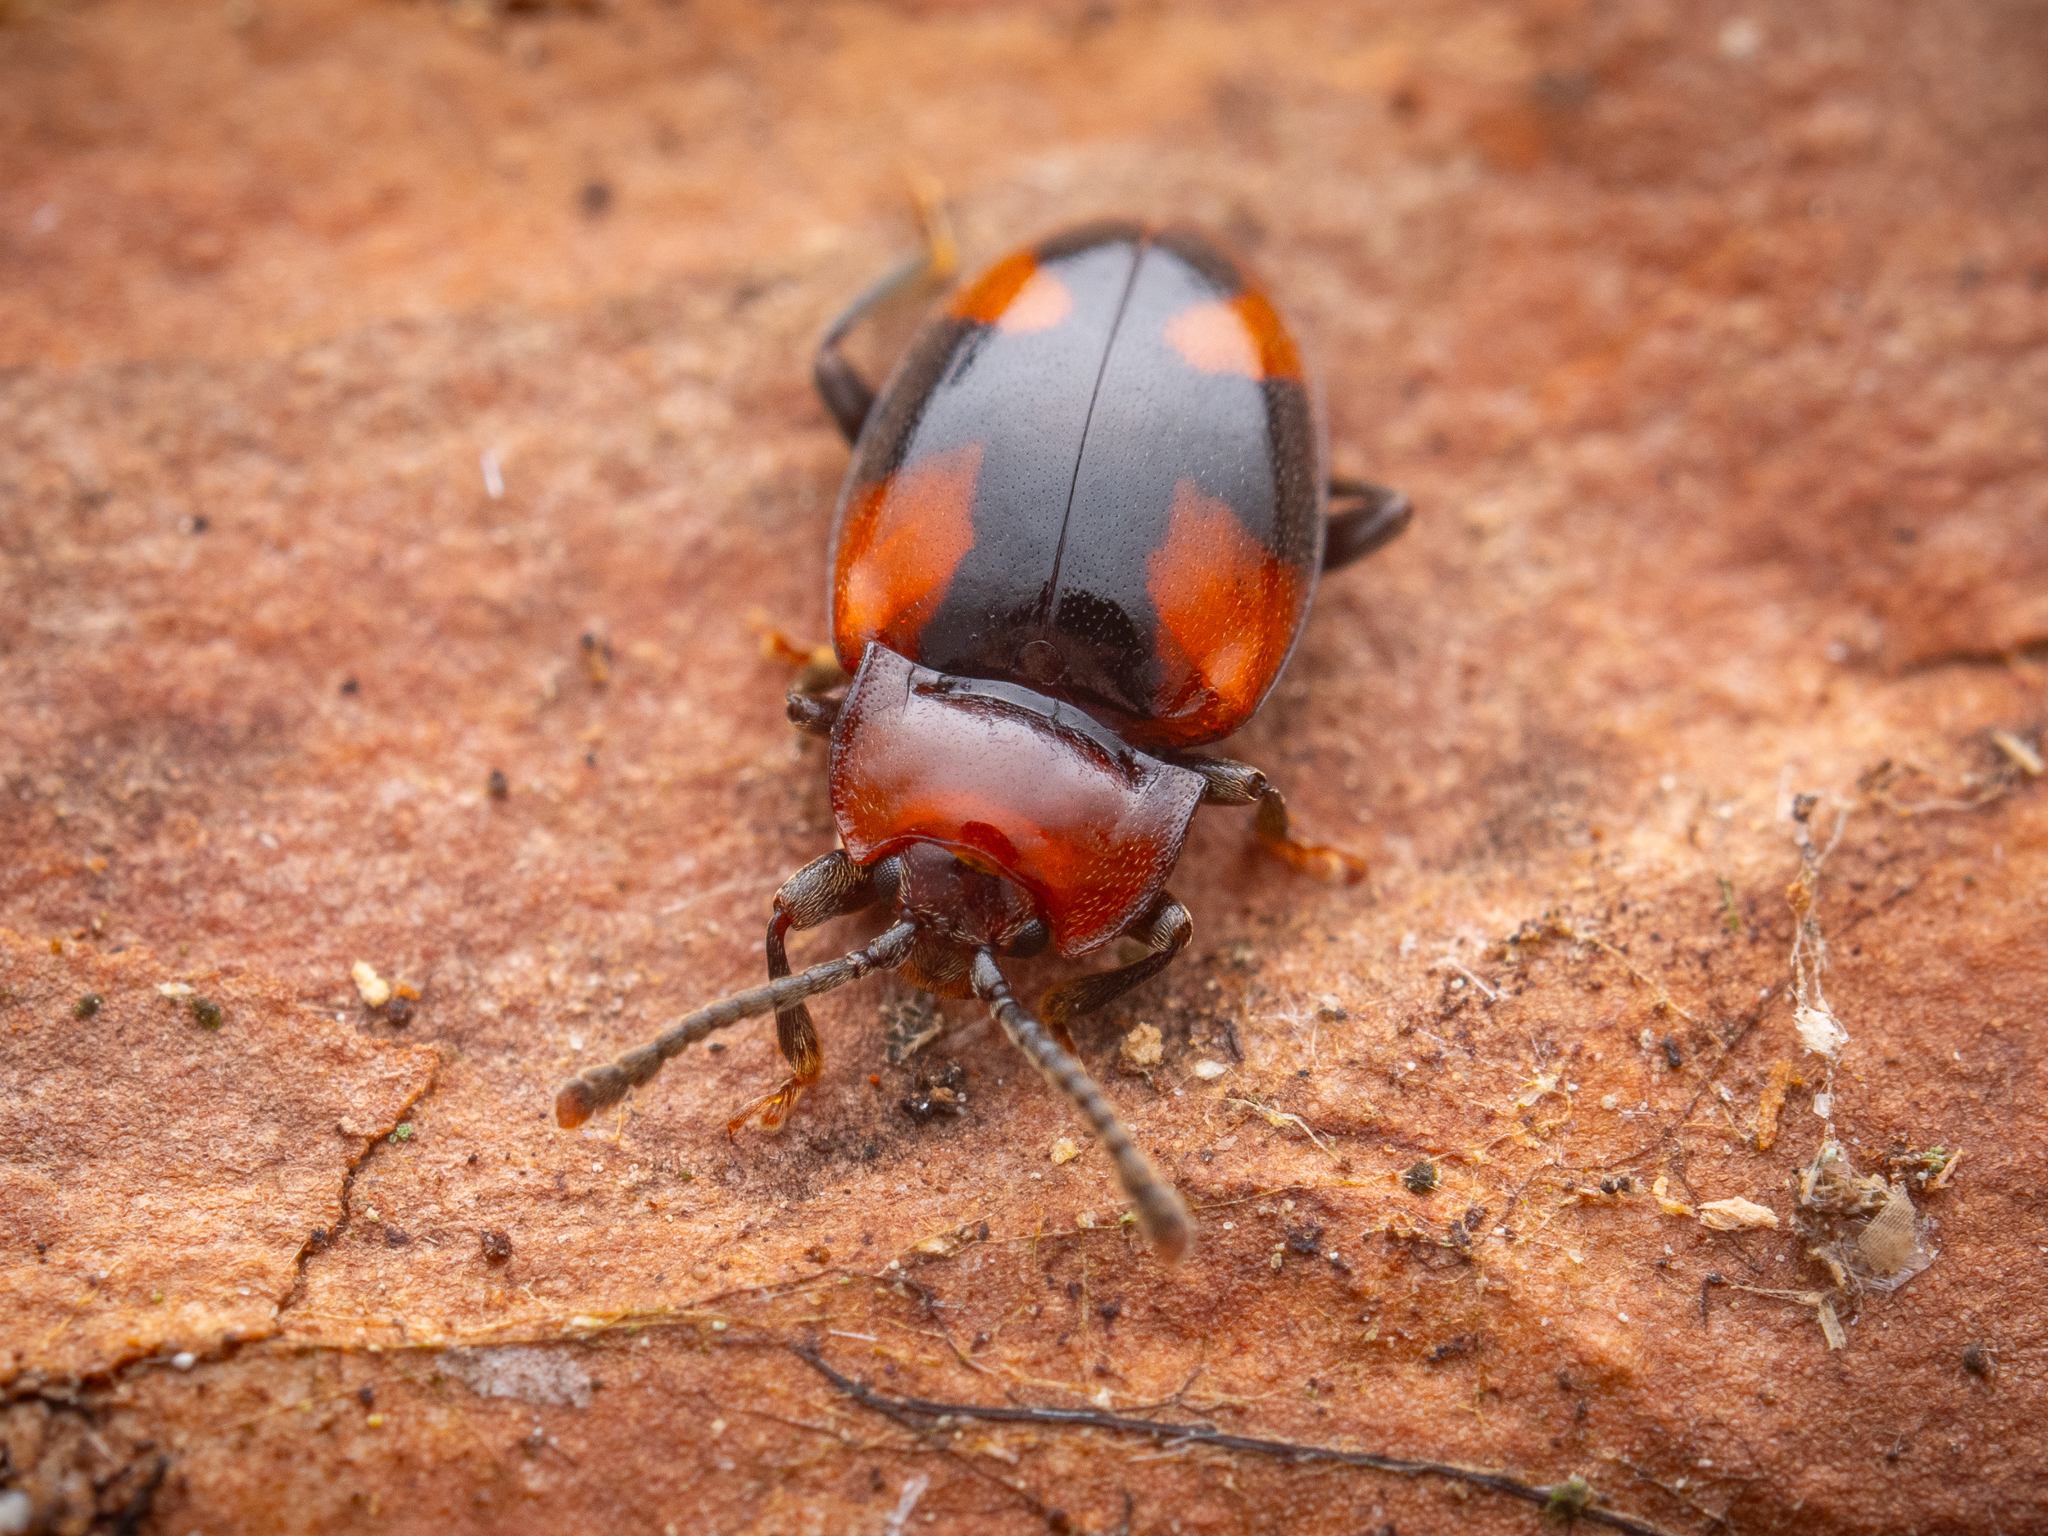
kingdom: Animalia
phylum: Arthropoda
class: Insecta
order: Coleoptera
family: Endomychidae
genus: Mycetina
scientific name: Mycetina cruciata
